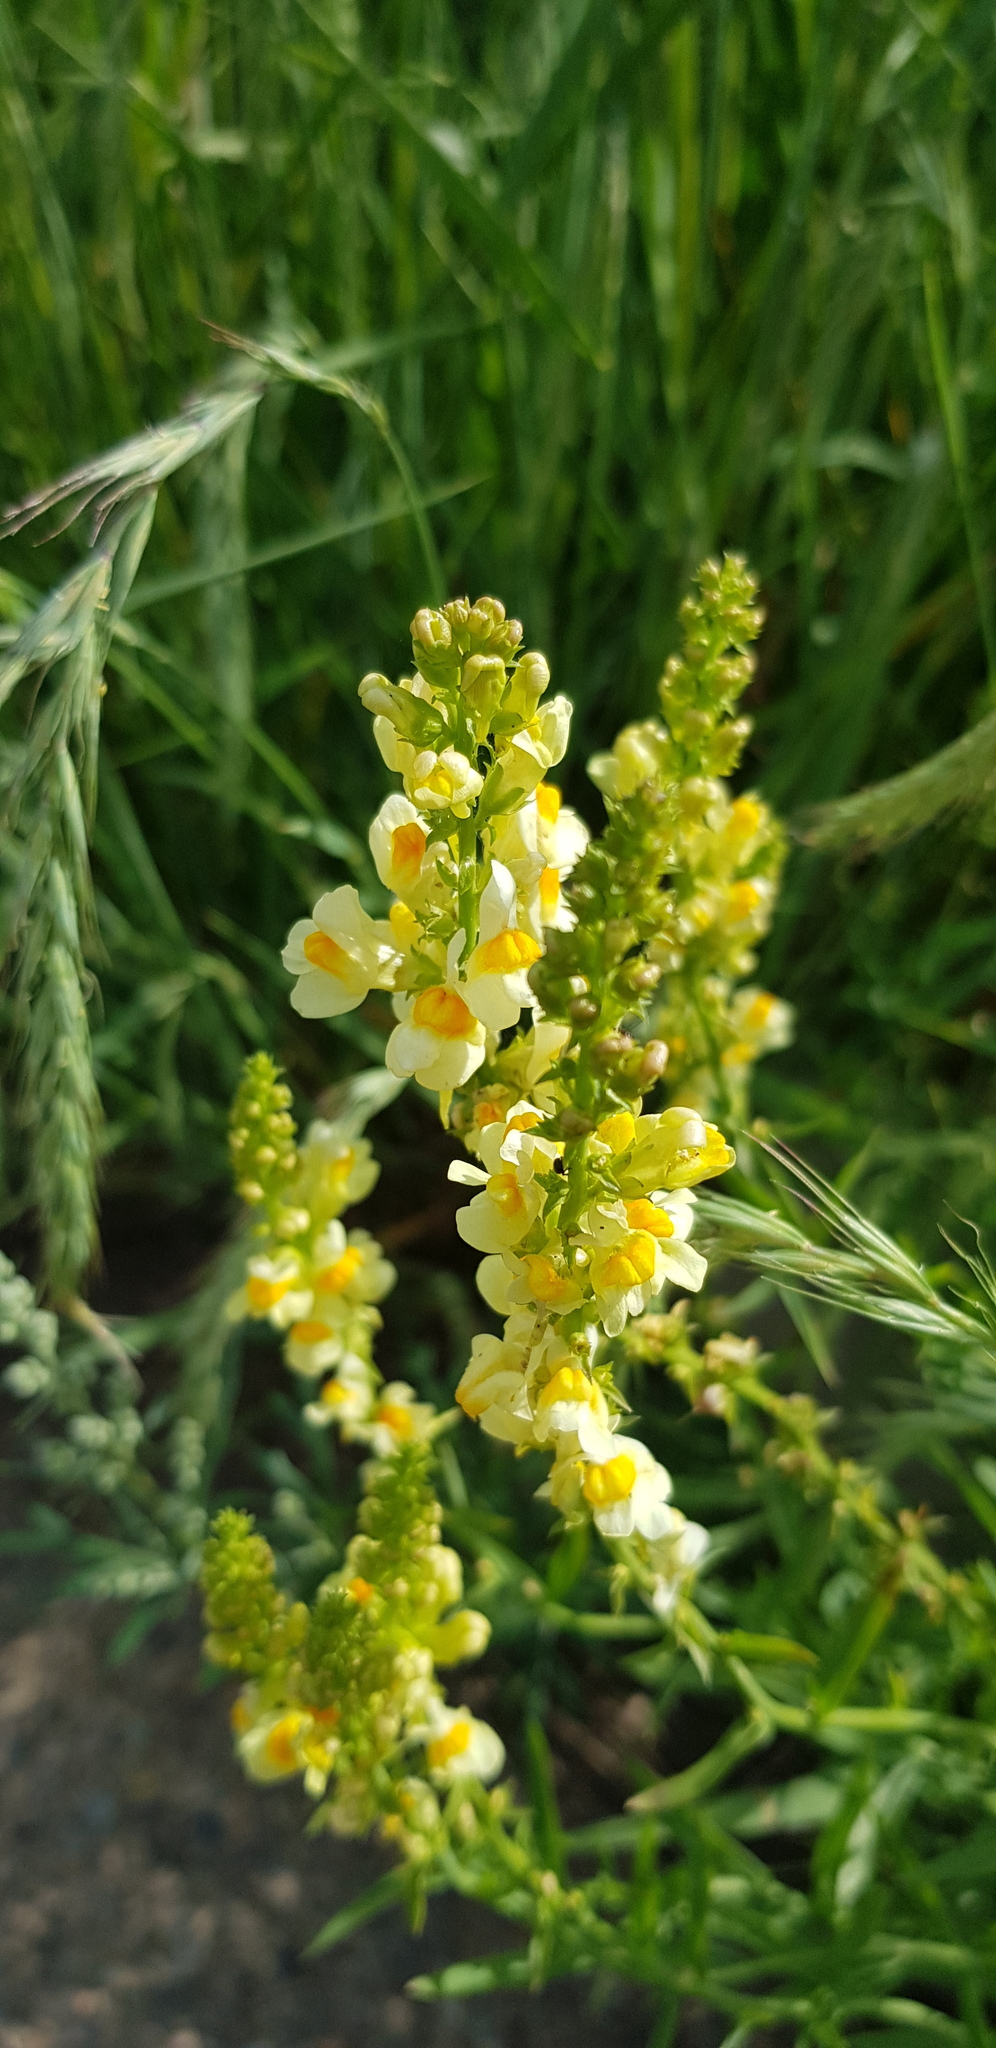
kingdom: Plantae
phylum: Tracheophyta
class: Magnoliopsida
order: Lamiales
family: Plantaginaceae
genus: Linaria
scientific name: Linaria acutiloba
